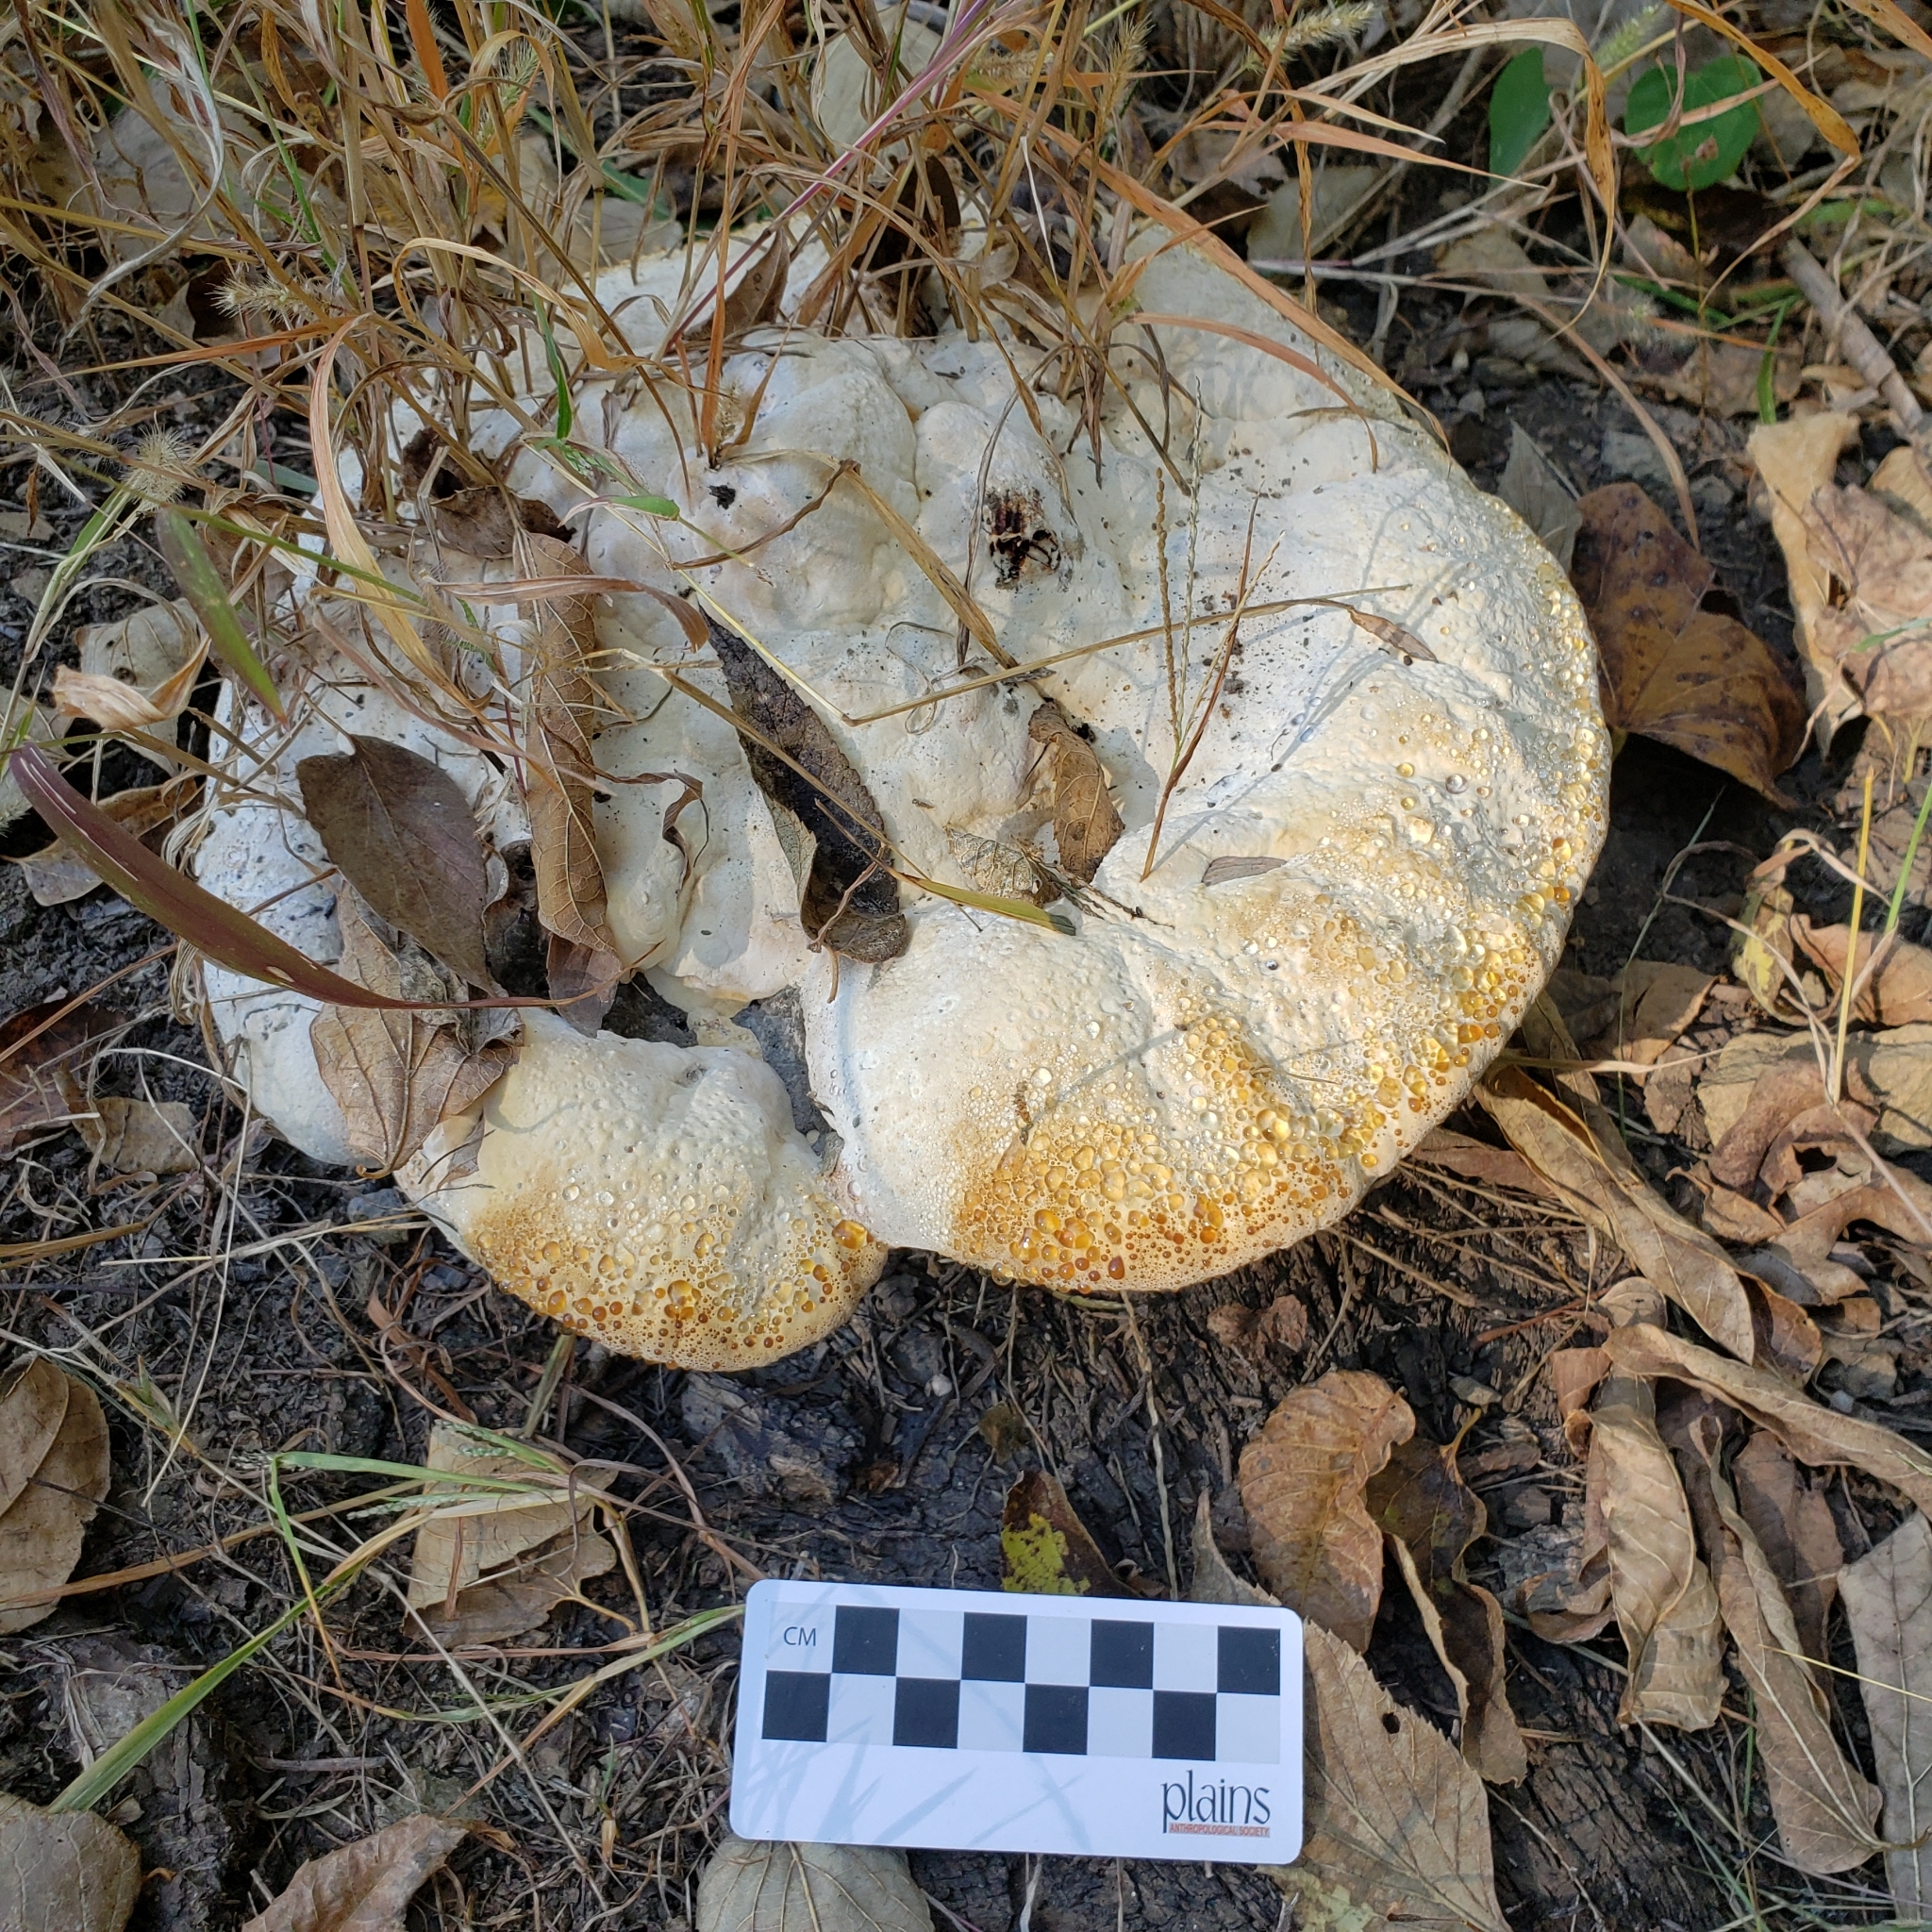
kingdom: Fungi
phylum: Basidiomycota
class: Agaricomycetes
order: Hymenochaetales
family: Hymenochaetaceae
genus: Pseudoinonotus
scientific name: Pseudoinonotus dryadeus
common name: Oak bracket
